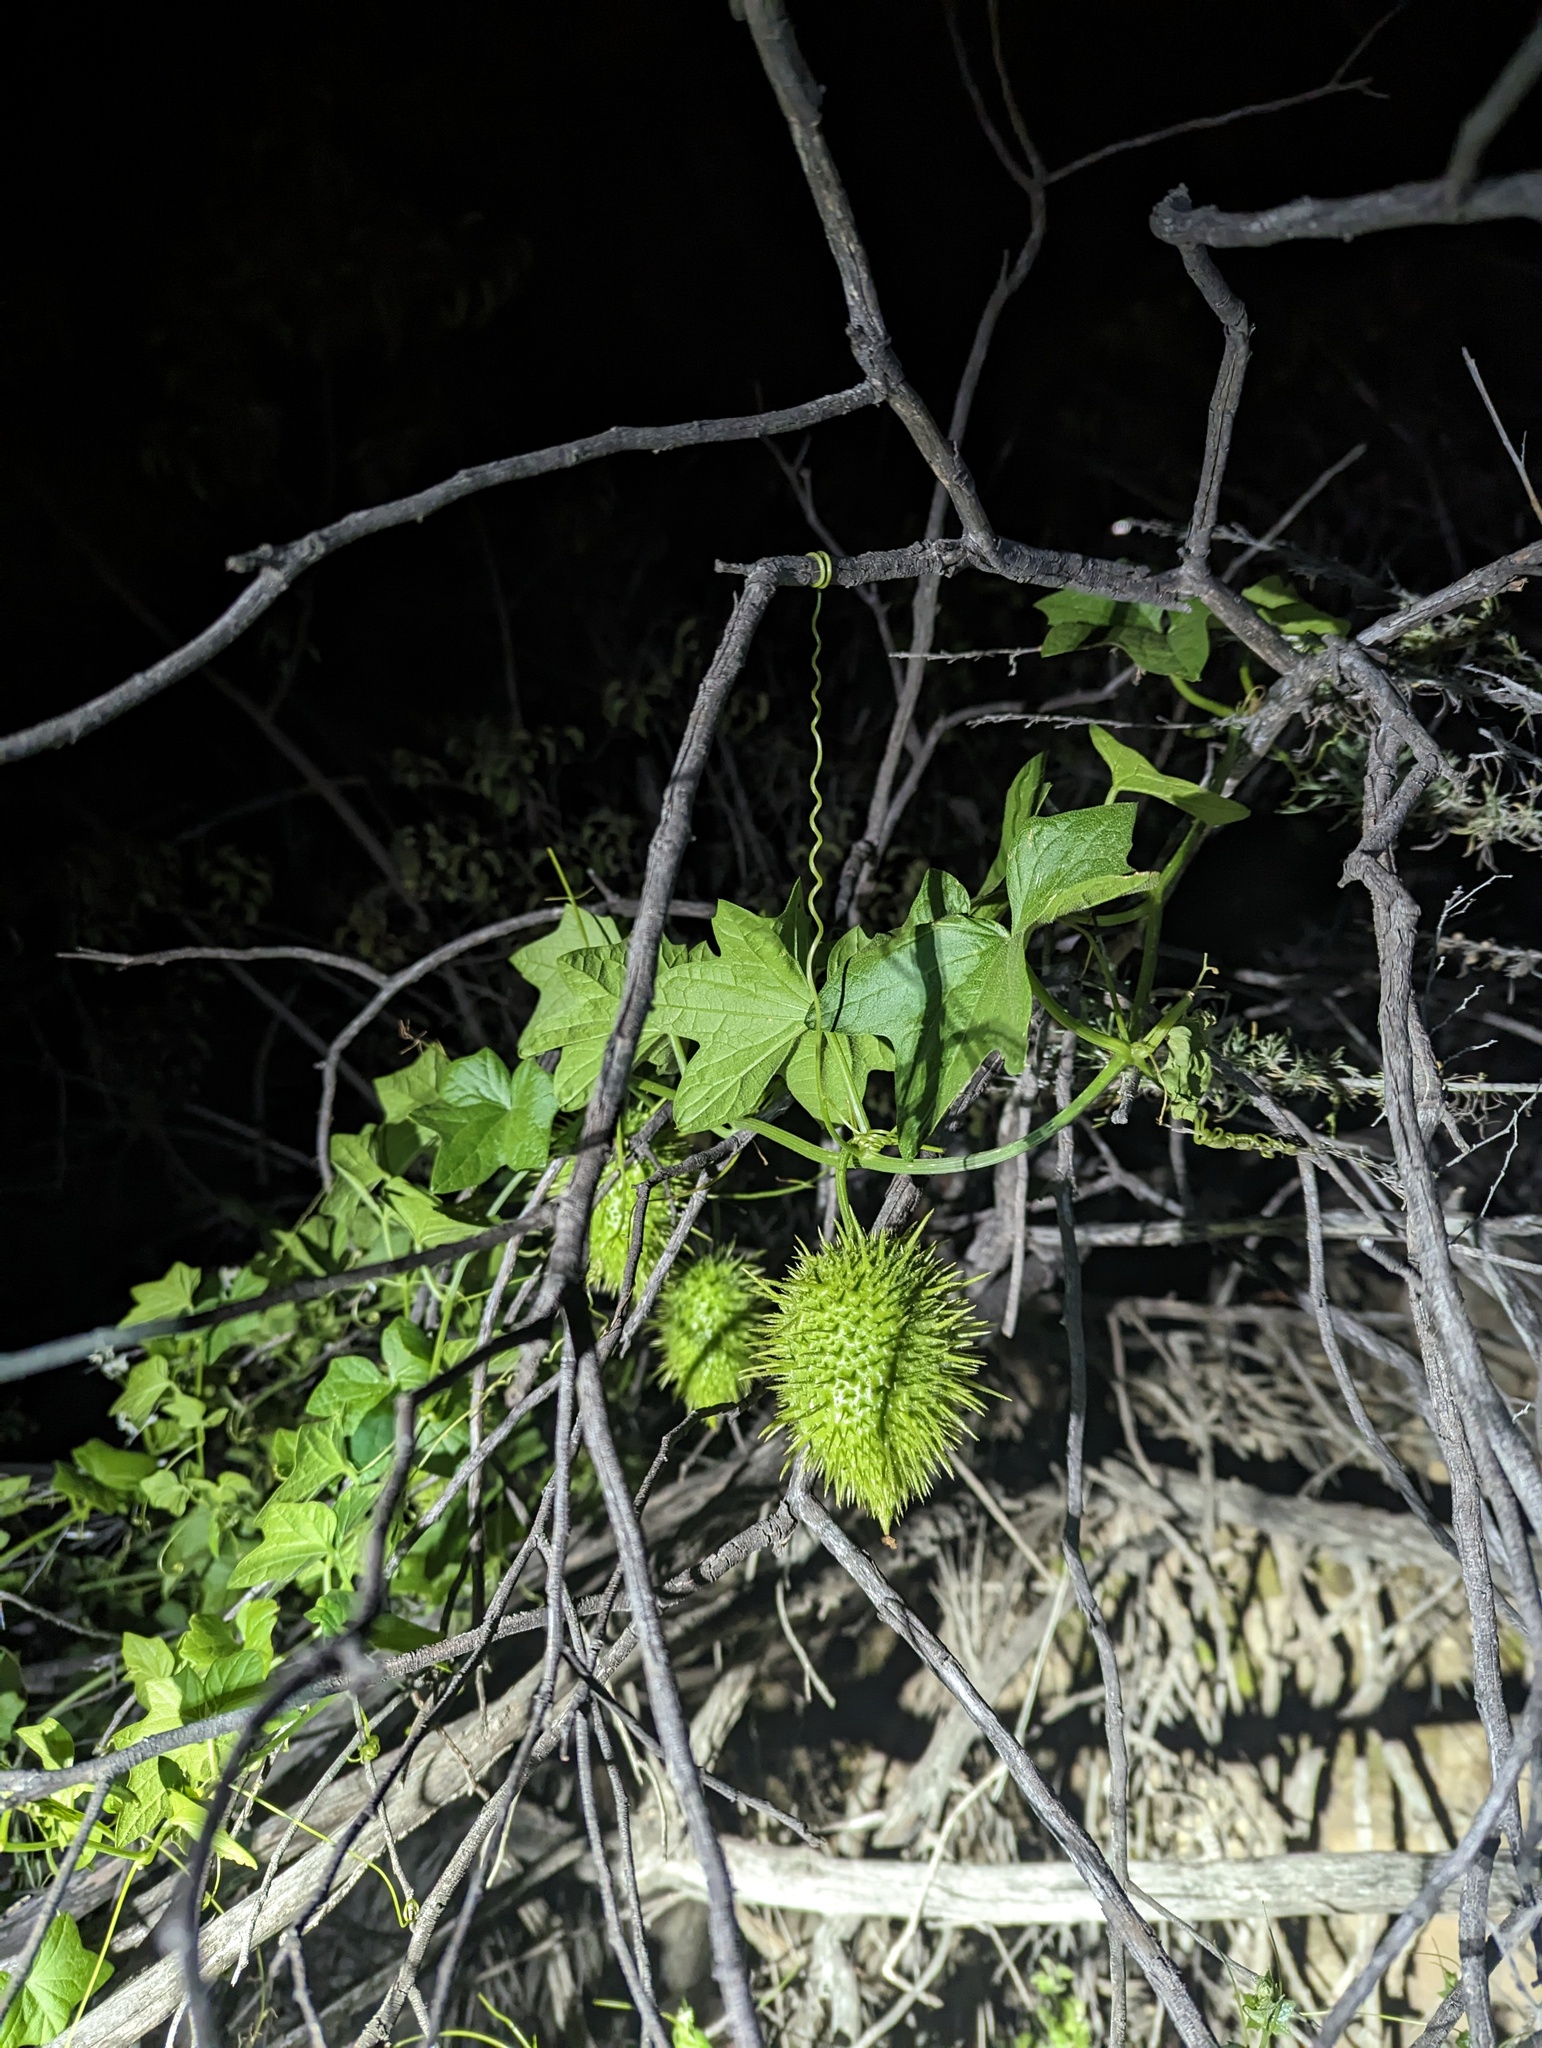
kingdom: Plantae
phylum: Tracheophyta
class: Magnoliopsida
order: Cucurbitales
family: Cucurbitaceae
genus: Marah
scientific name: Marah macrocarpa
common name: Cucamonga manroot
